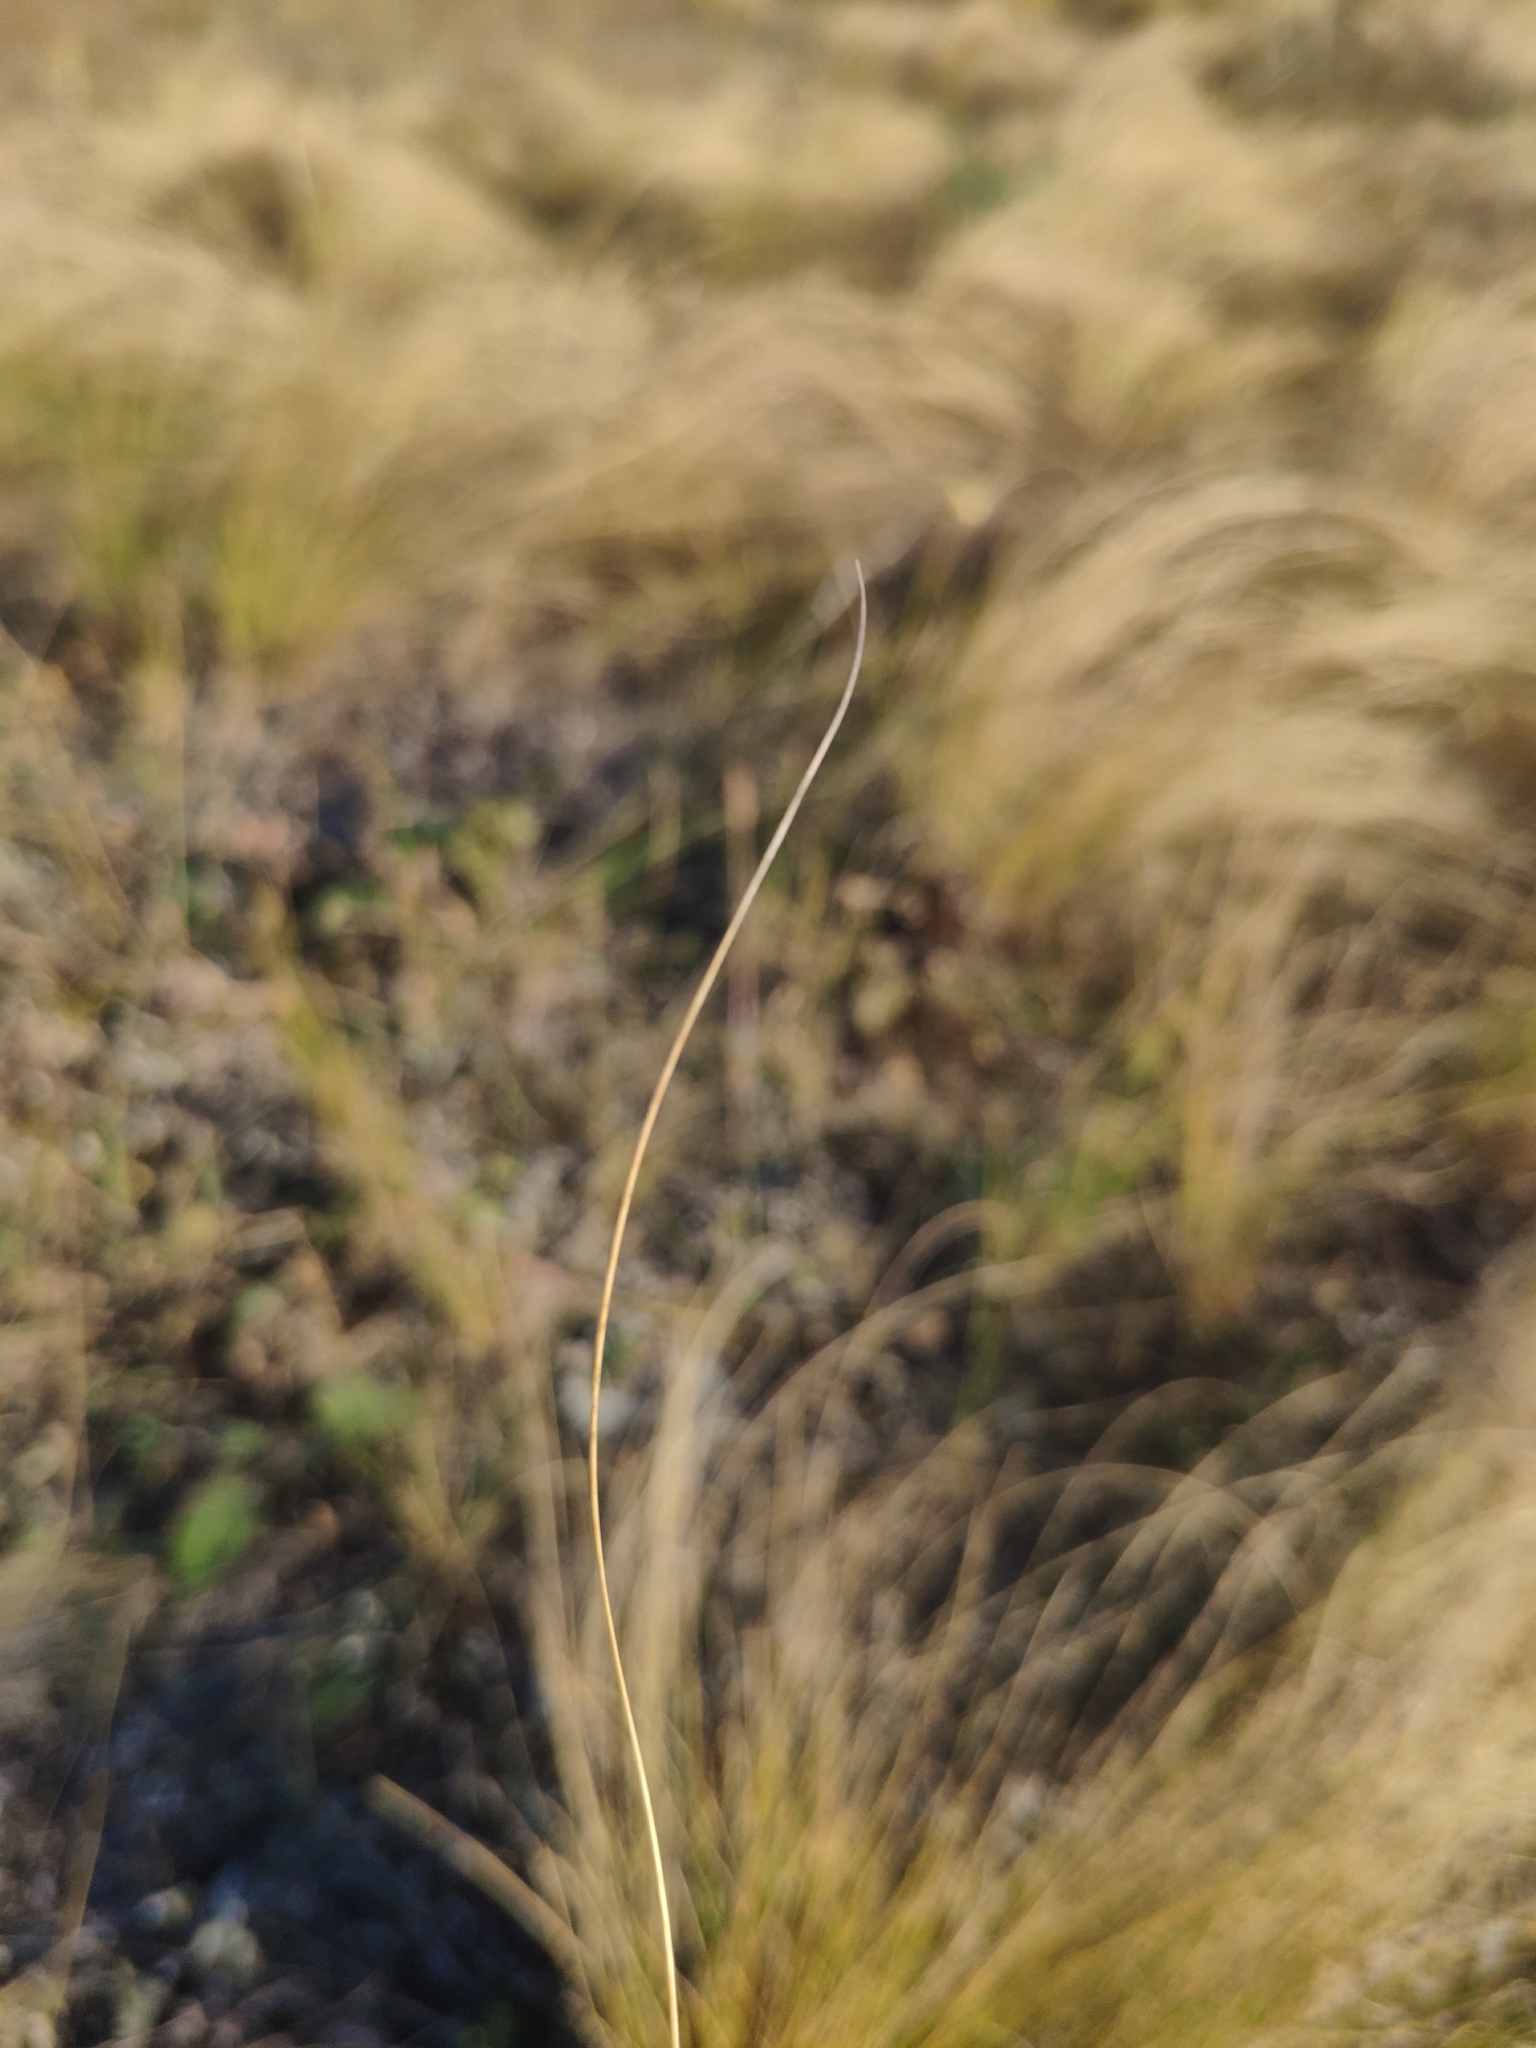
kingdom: Plantae
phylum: Tracheophyta
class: Liliopsida
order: Poales
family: Poaceae
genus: Stipa
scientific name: Stipa tirsa
